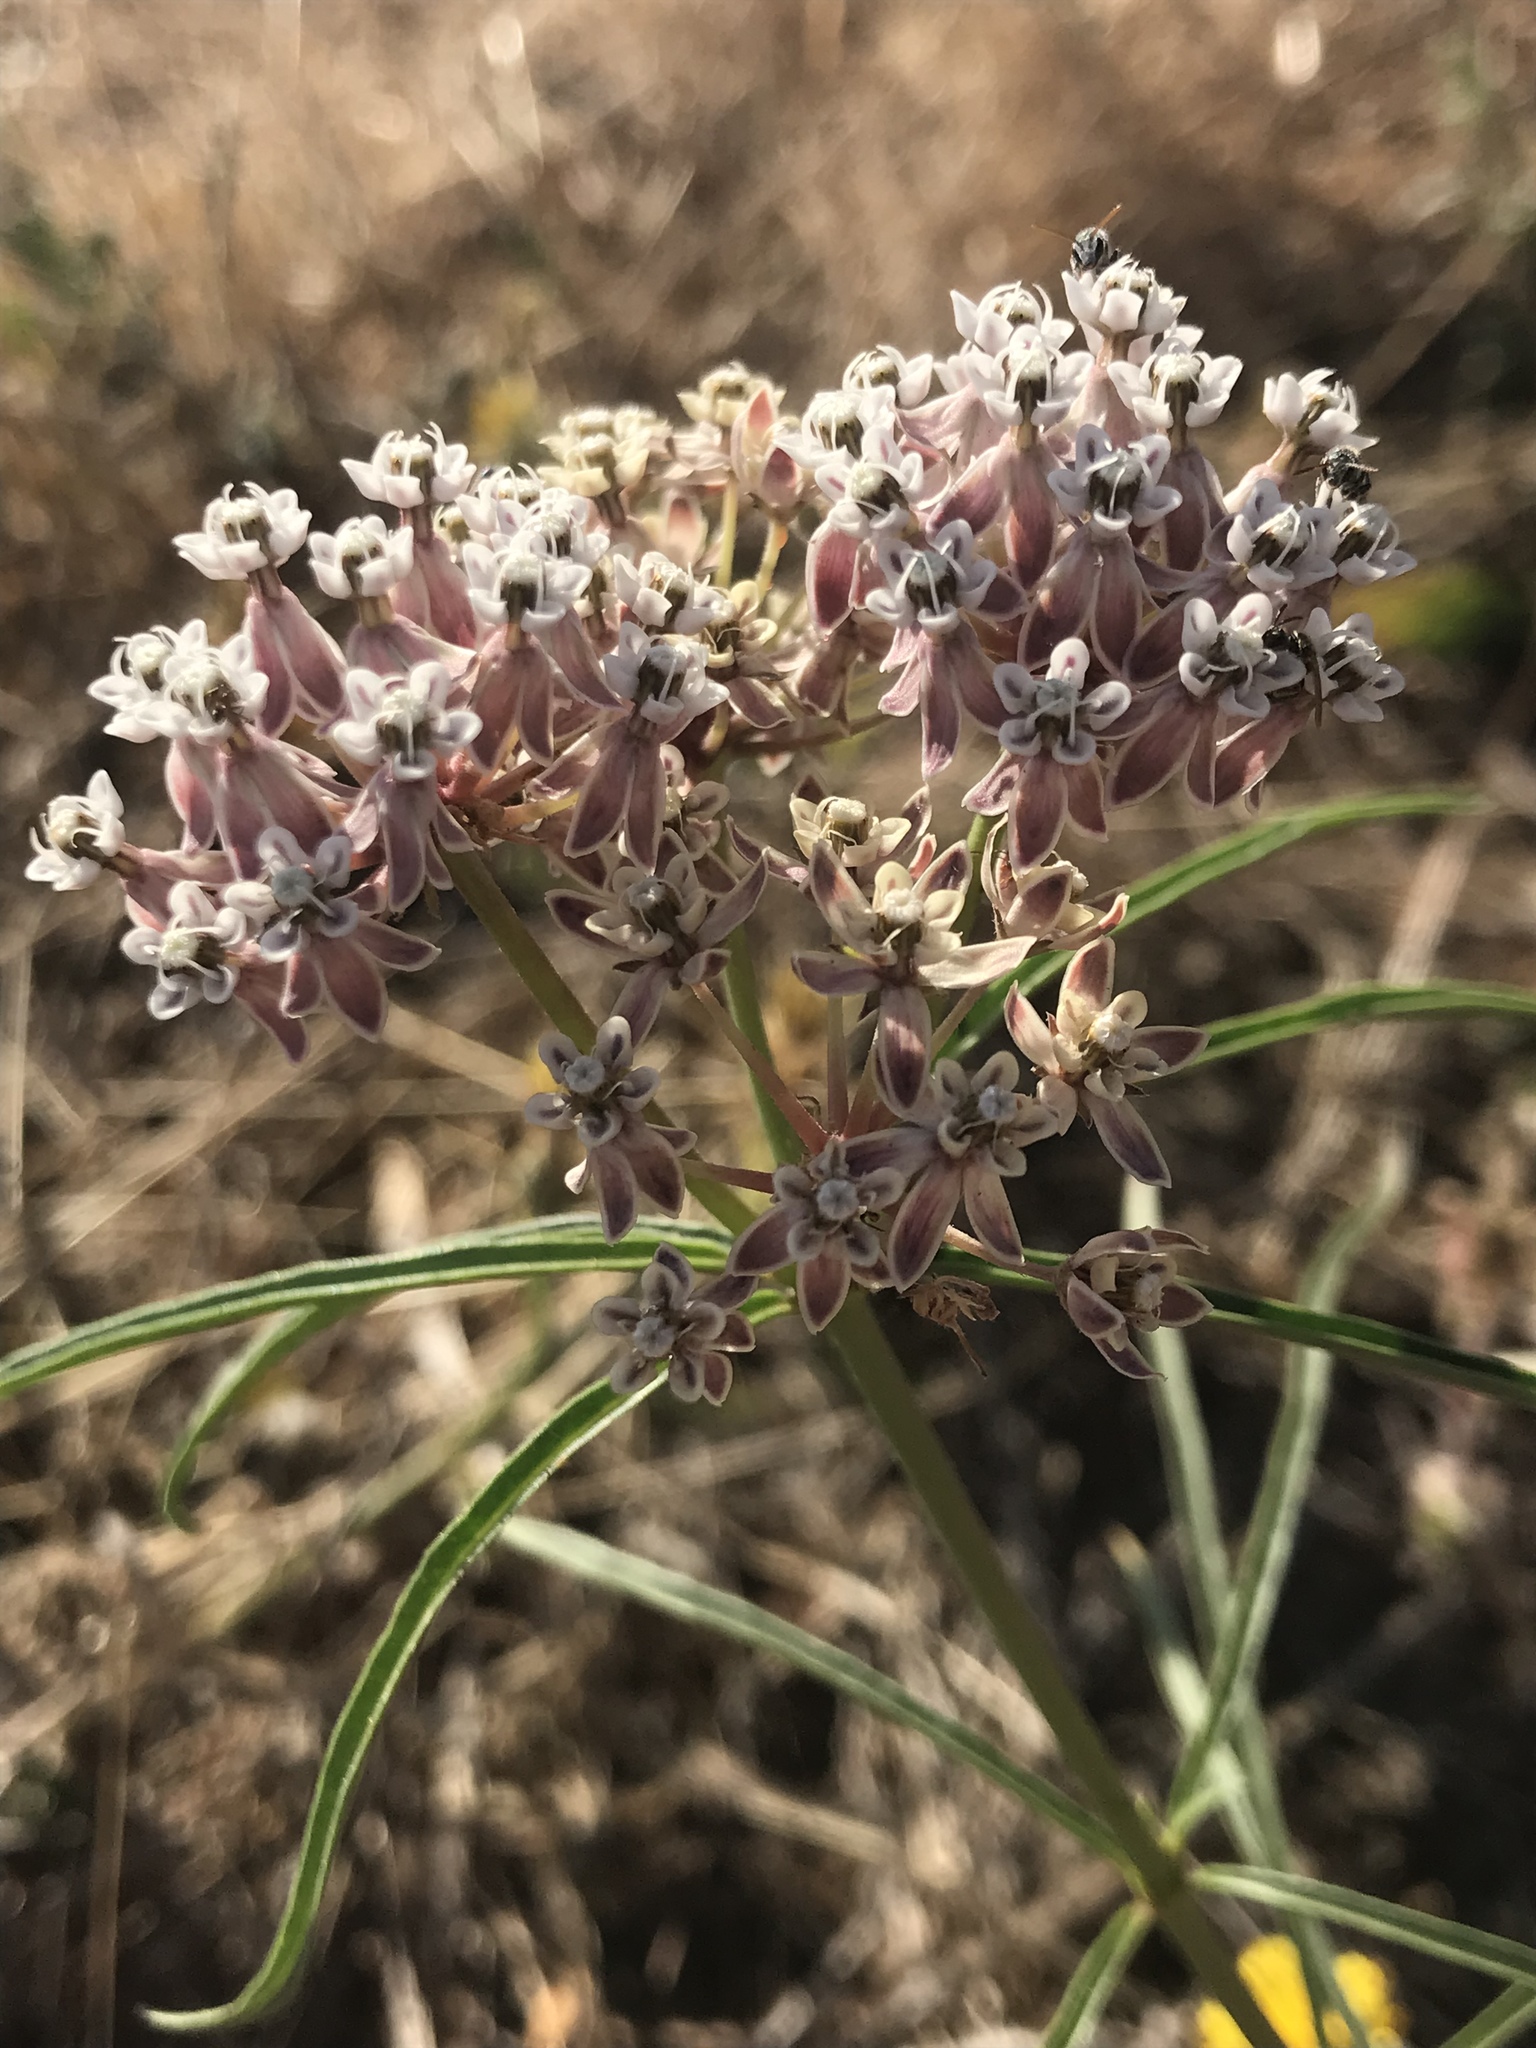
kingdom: Plantae
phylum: Tracheophyta
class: Magnoliopsida
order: Gentianales
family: Apocynaceae
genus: Asclepias
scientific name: Asclepias fascicularis
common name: Mexican milkweed
